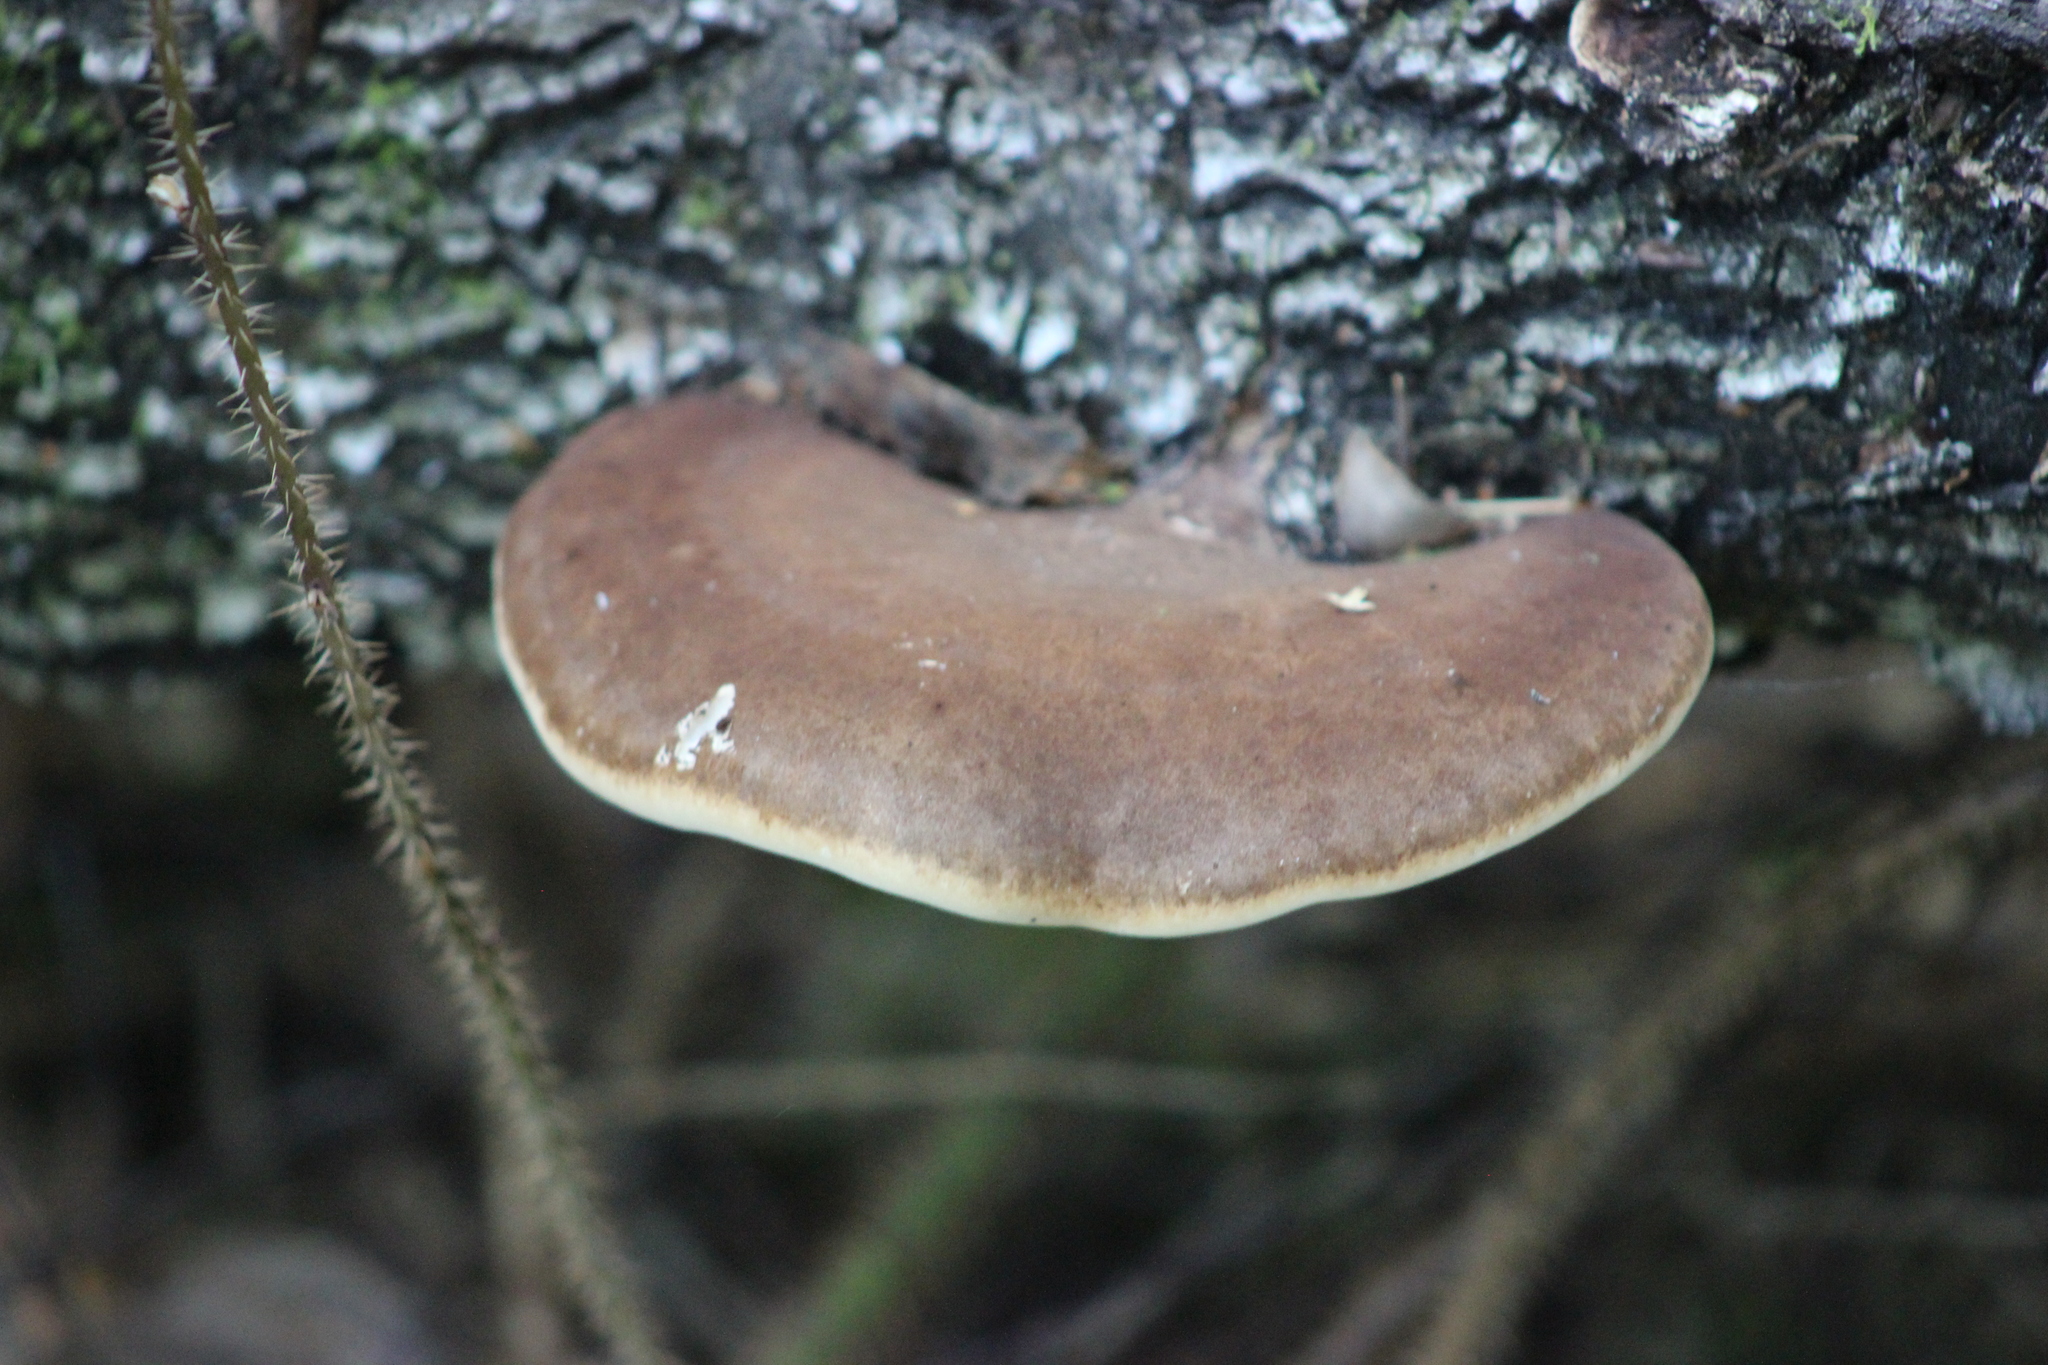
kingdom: Fungi
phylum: Basidiomycota
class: Agaricomycetes
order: Polyporales
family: Fomitopsidaceae
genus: Fomitopsis
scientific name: Fomitopsis betulina
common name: Birch polypore
